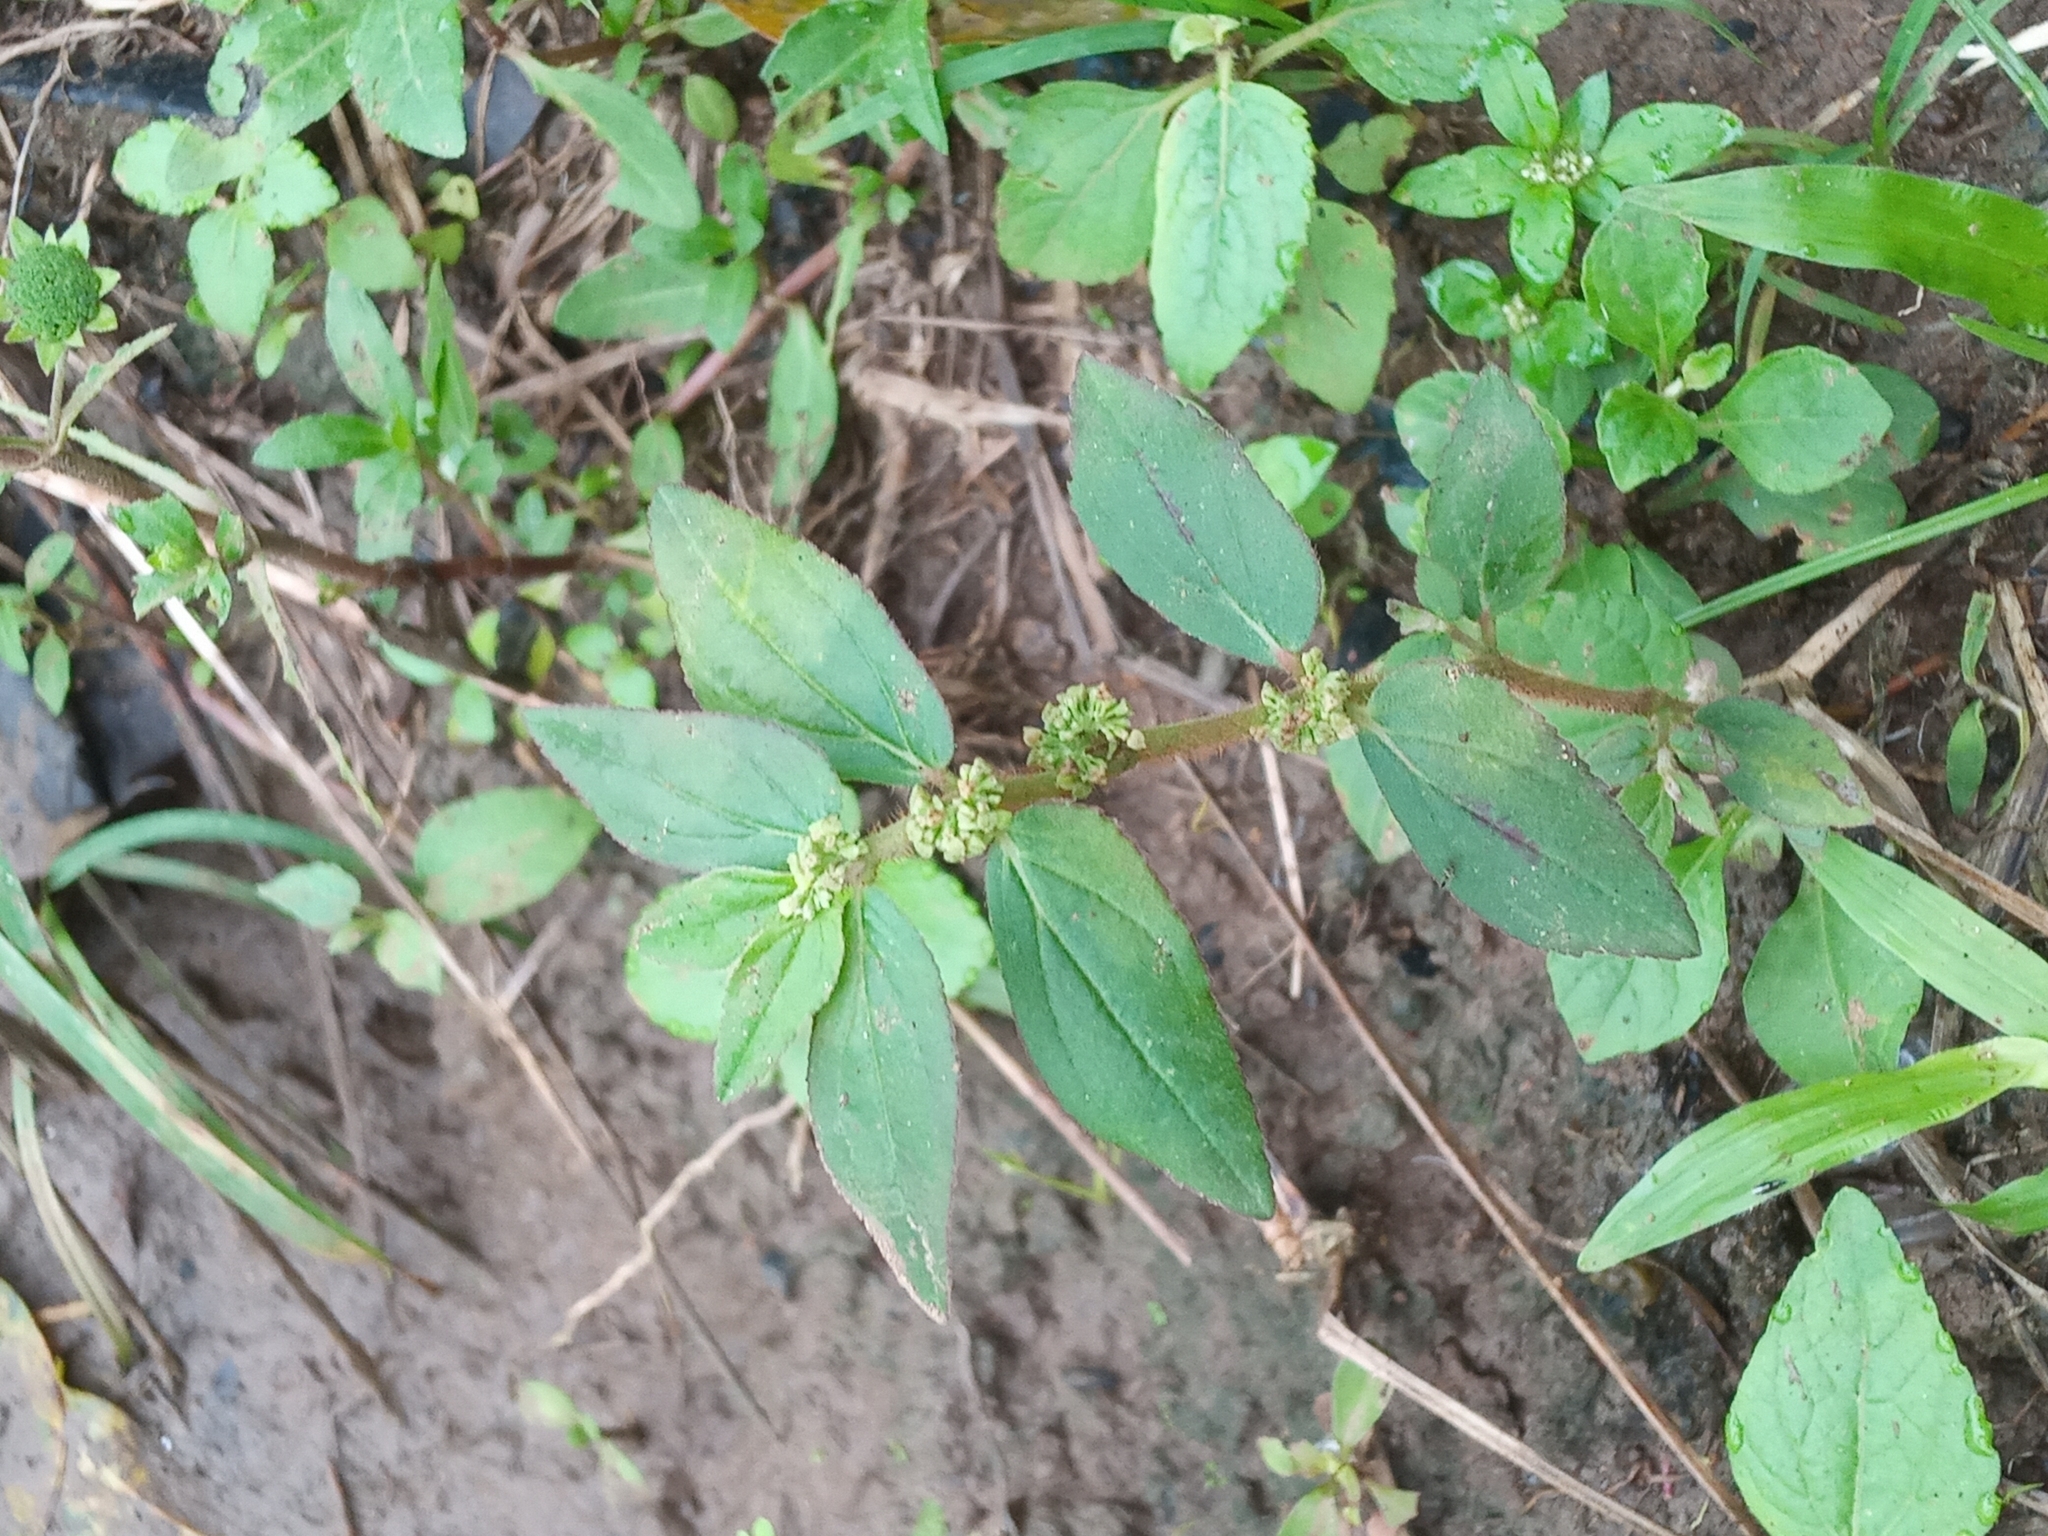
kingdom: Plantae
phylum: Tracheophyta
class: Magnoliopsida
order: Malpighiales
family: Euphorbiaceae
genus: Euphorbia
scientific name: Euphorbia hirta
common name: Pillpod sandmat
